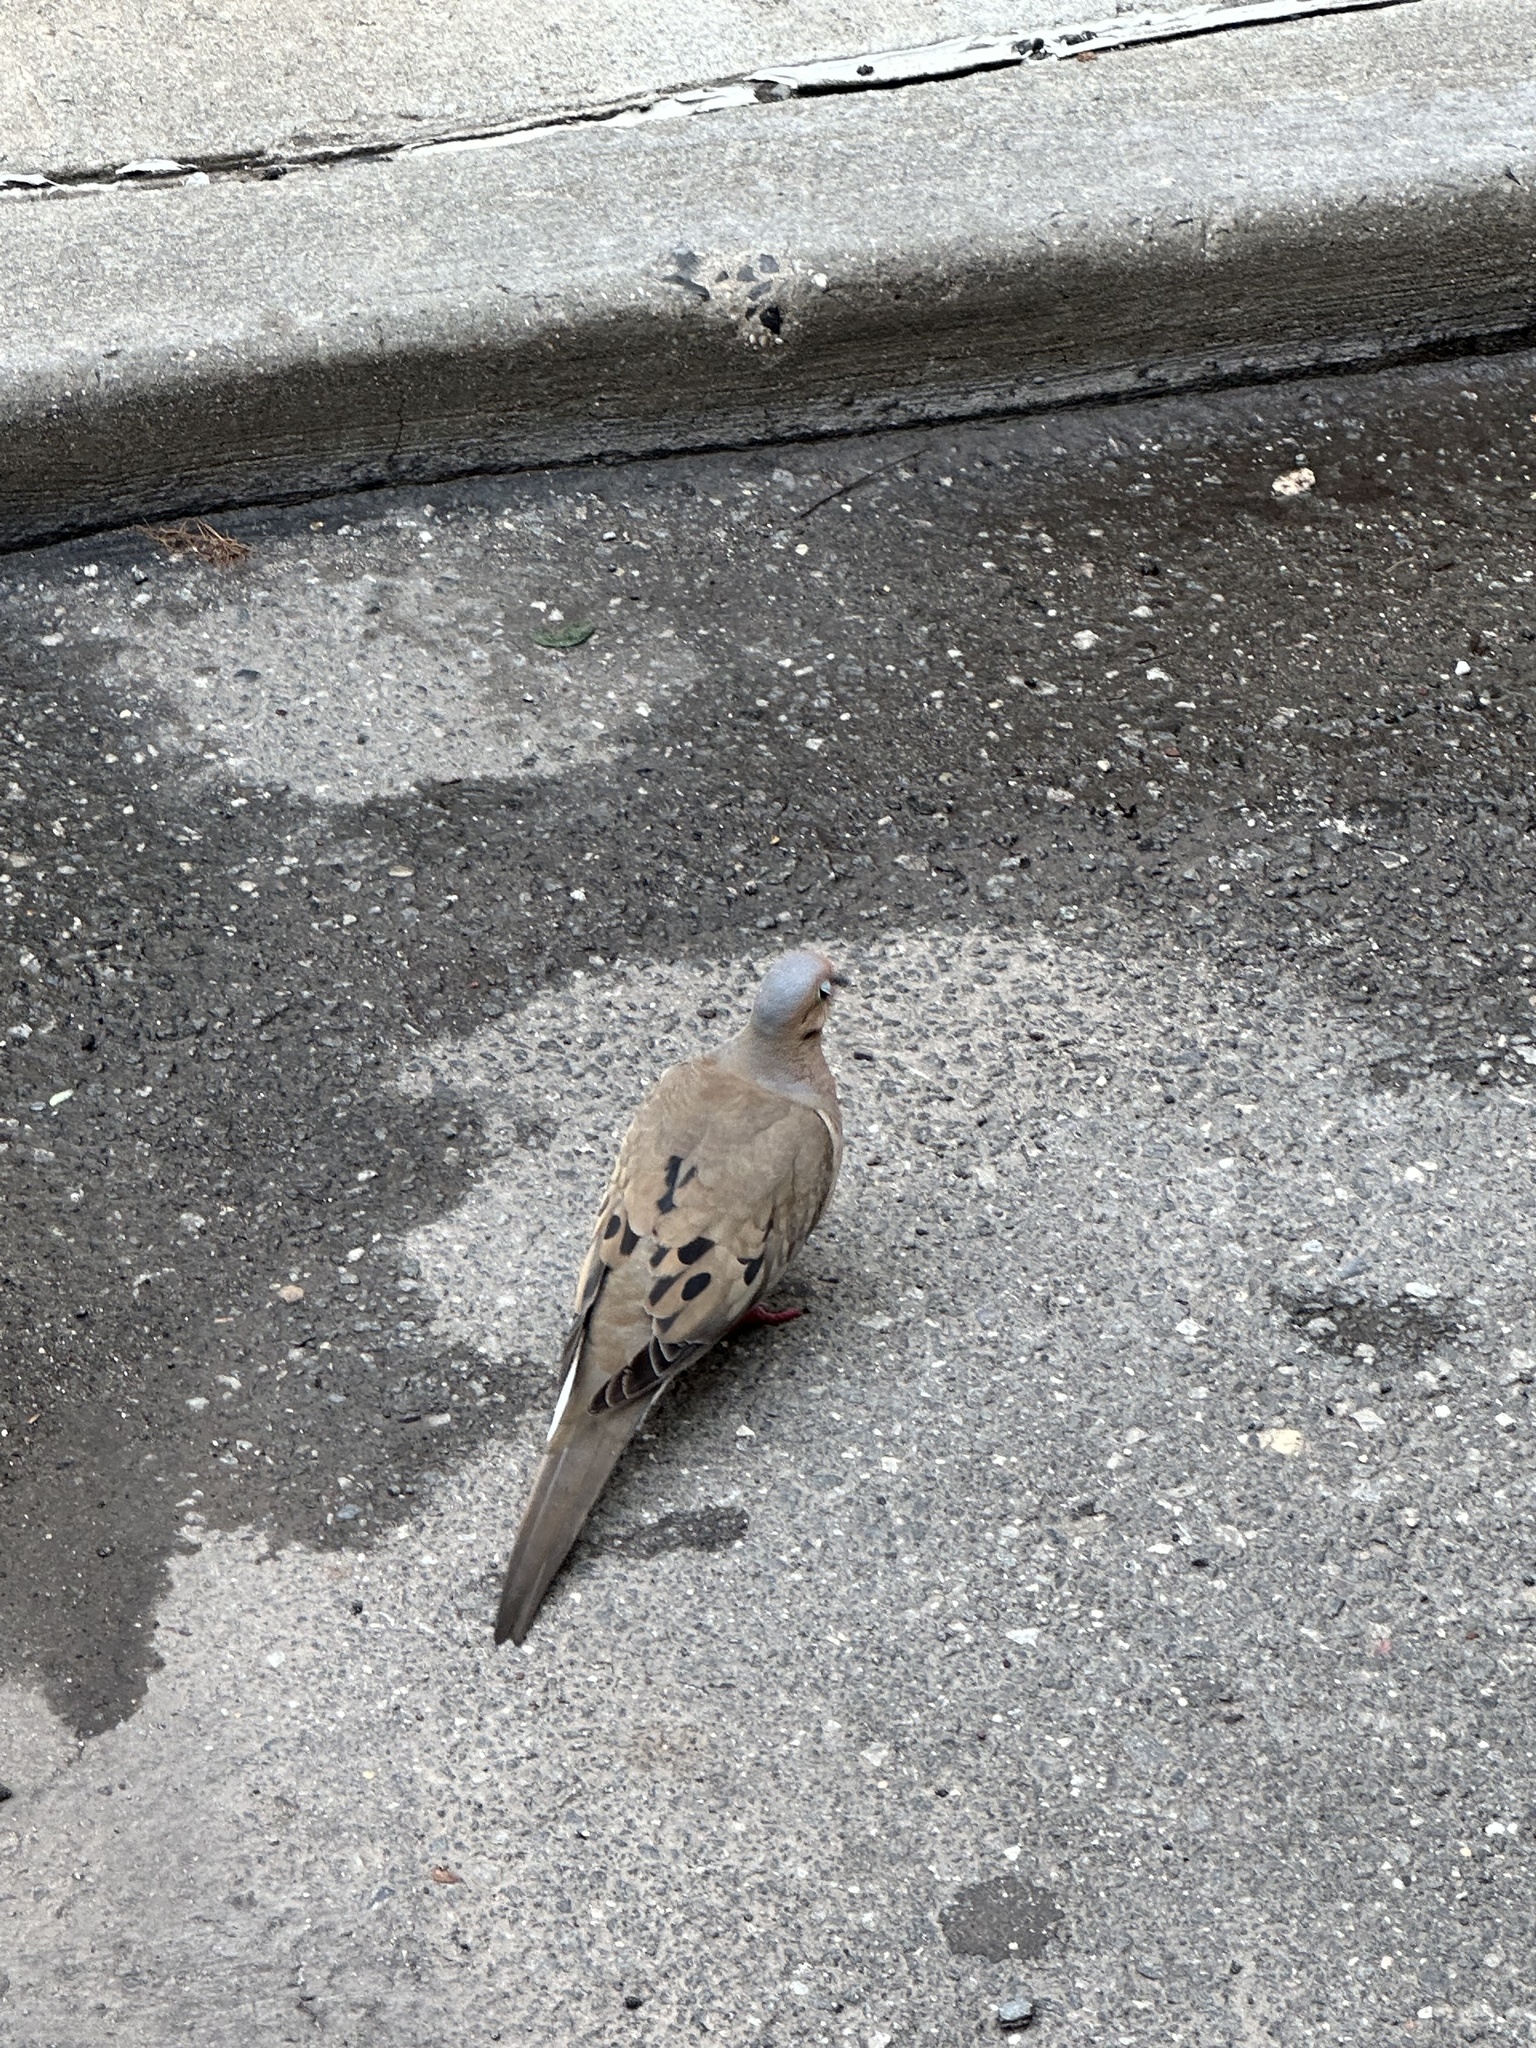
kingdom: Animalia
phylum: Chordata
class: Aves
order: Columbiformes
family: Columbidae
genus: Zenaida
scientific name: Zenaida macroura
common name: Mourning dove
